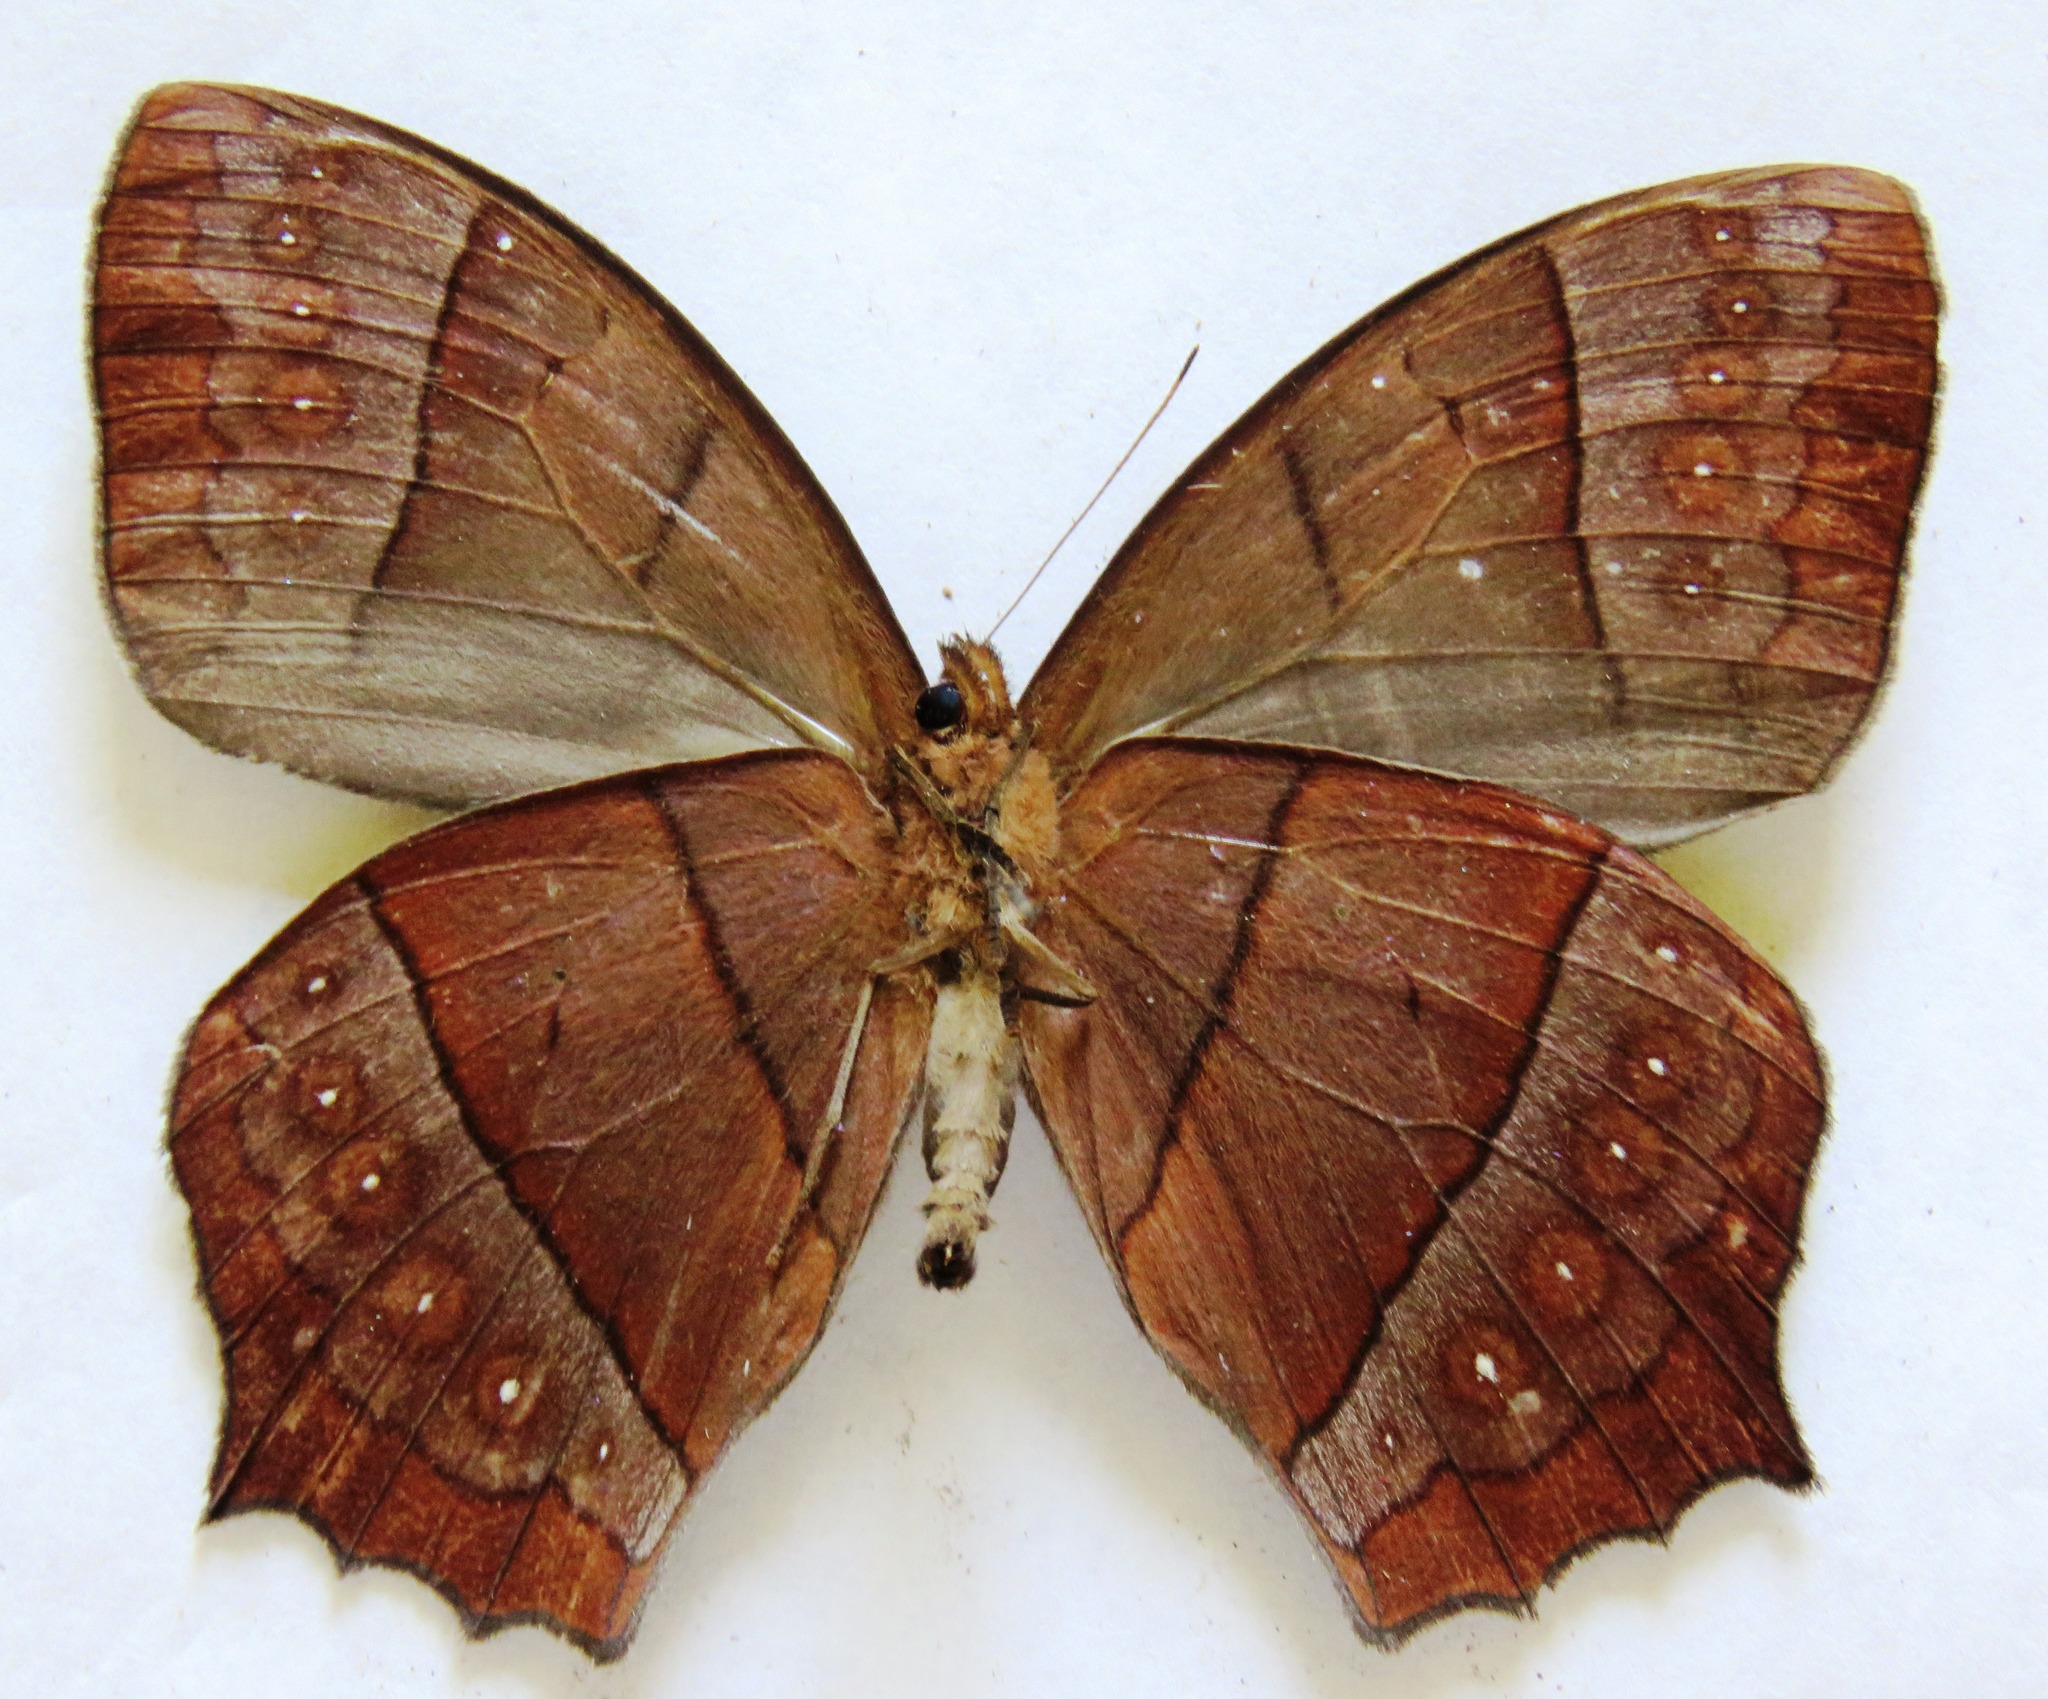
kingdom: Animalia
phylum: Arthropoda
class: Insecta
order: Lepidoptera
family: Nymphalidae
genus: Taygetis
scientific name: Taygetis virgilia
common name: Stub-tailed satyr
